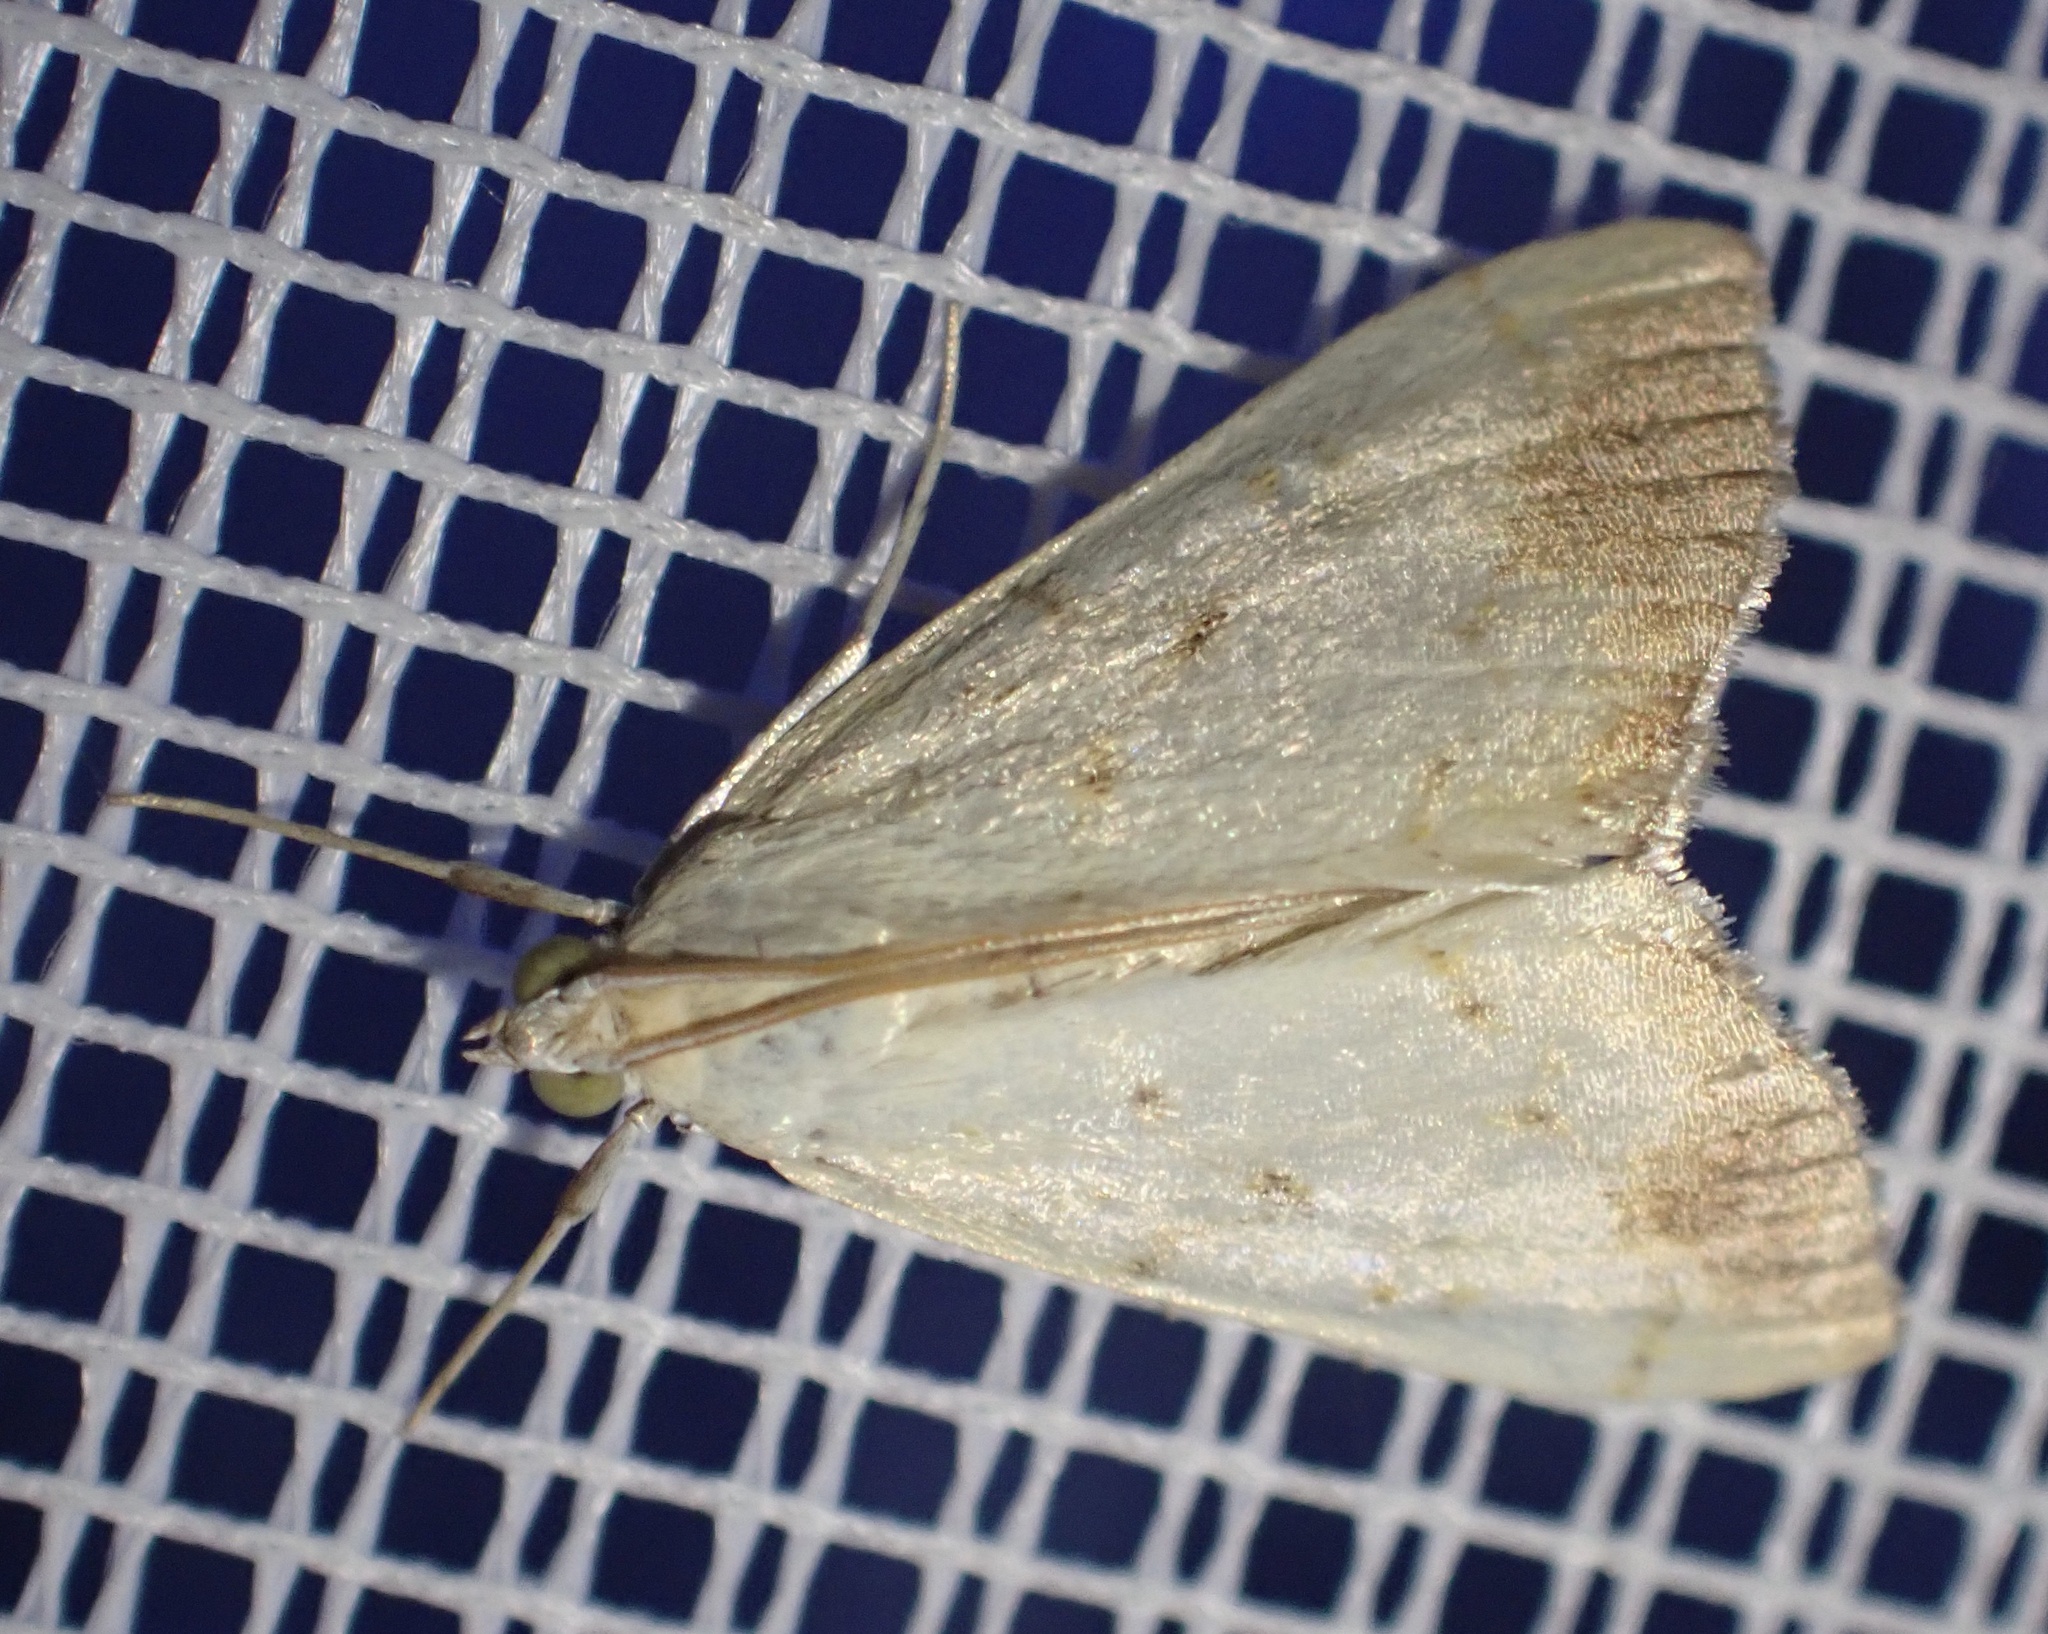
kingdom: Animalia
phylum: Arthropoda
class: Insecta
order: Lepidoptera
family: Crambidae
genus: Evergestis
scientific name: Evergestis extimalis
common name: Marbled yellow pearl
